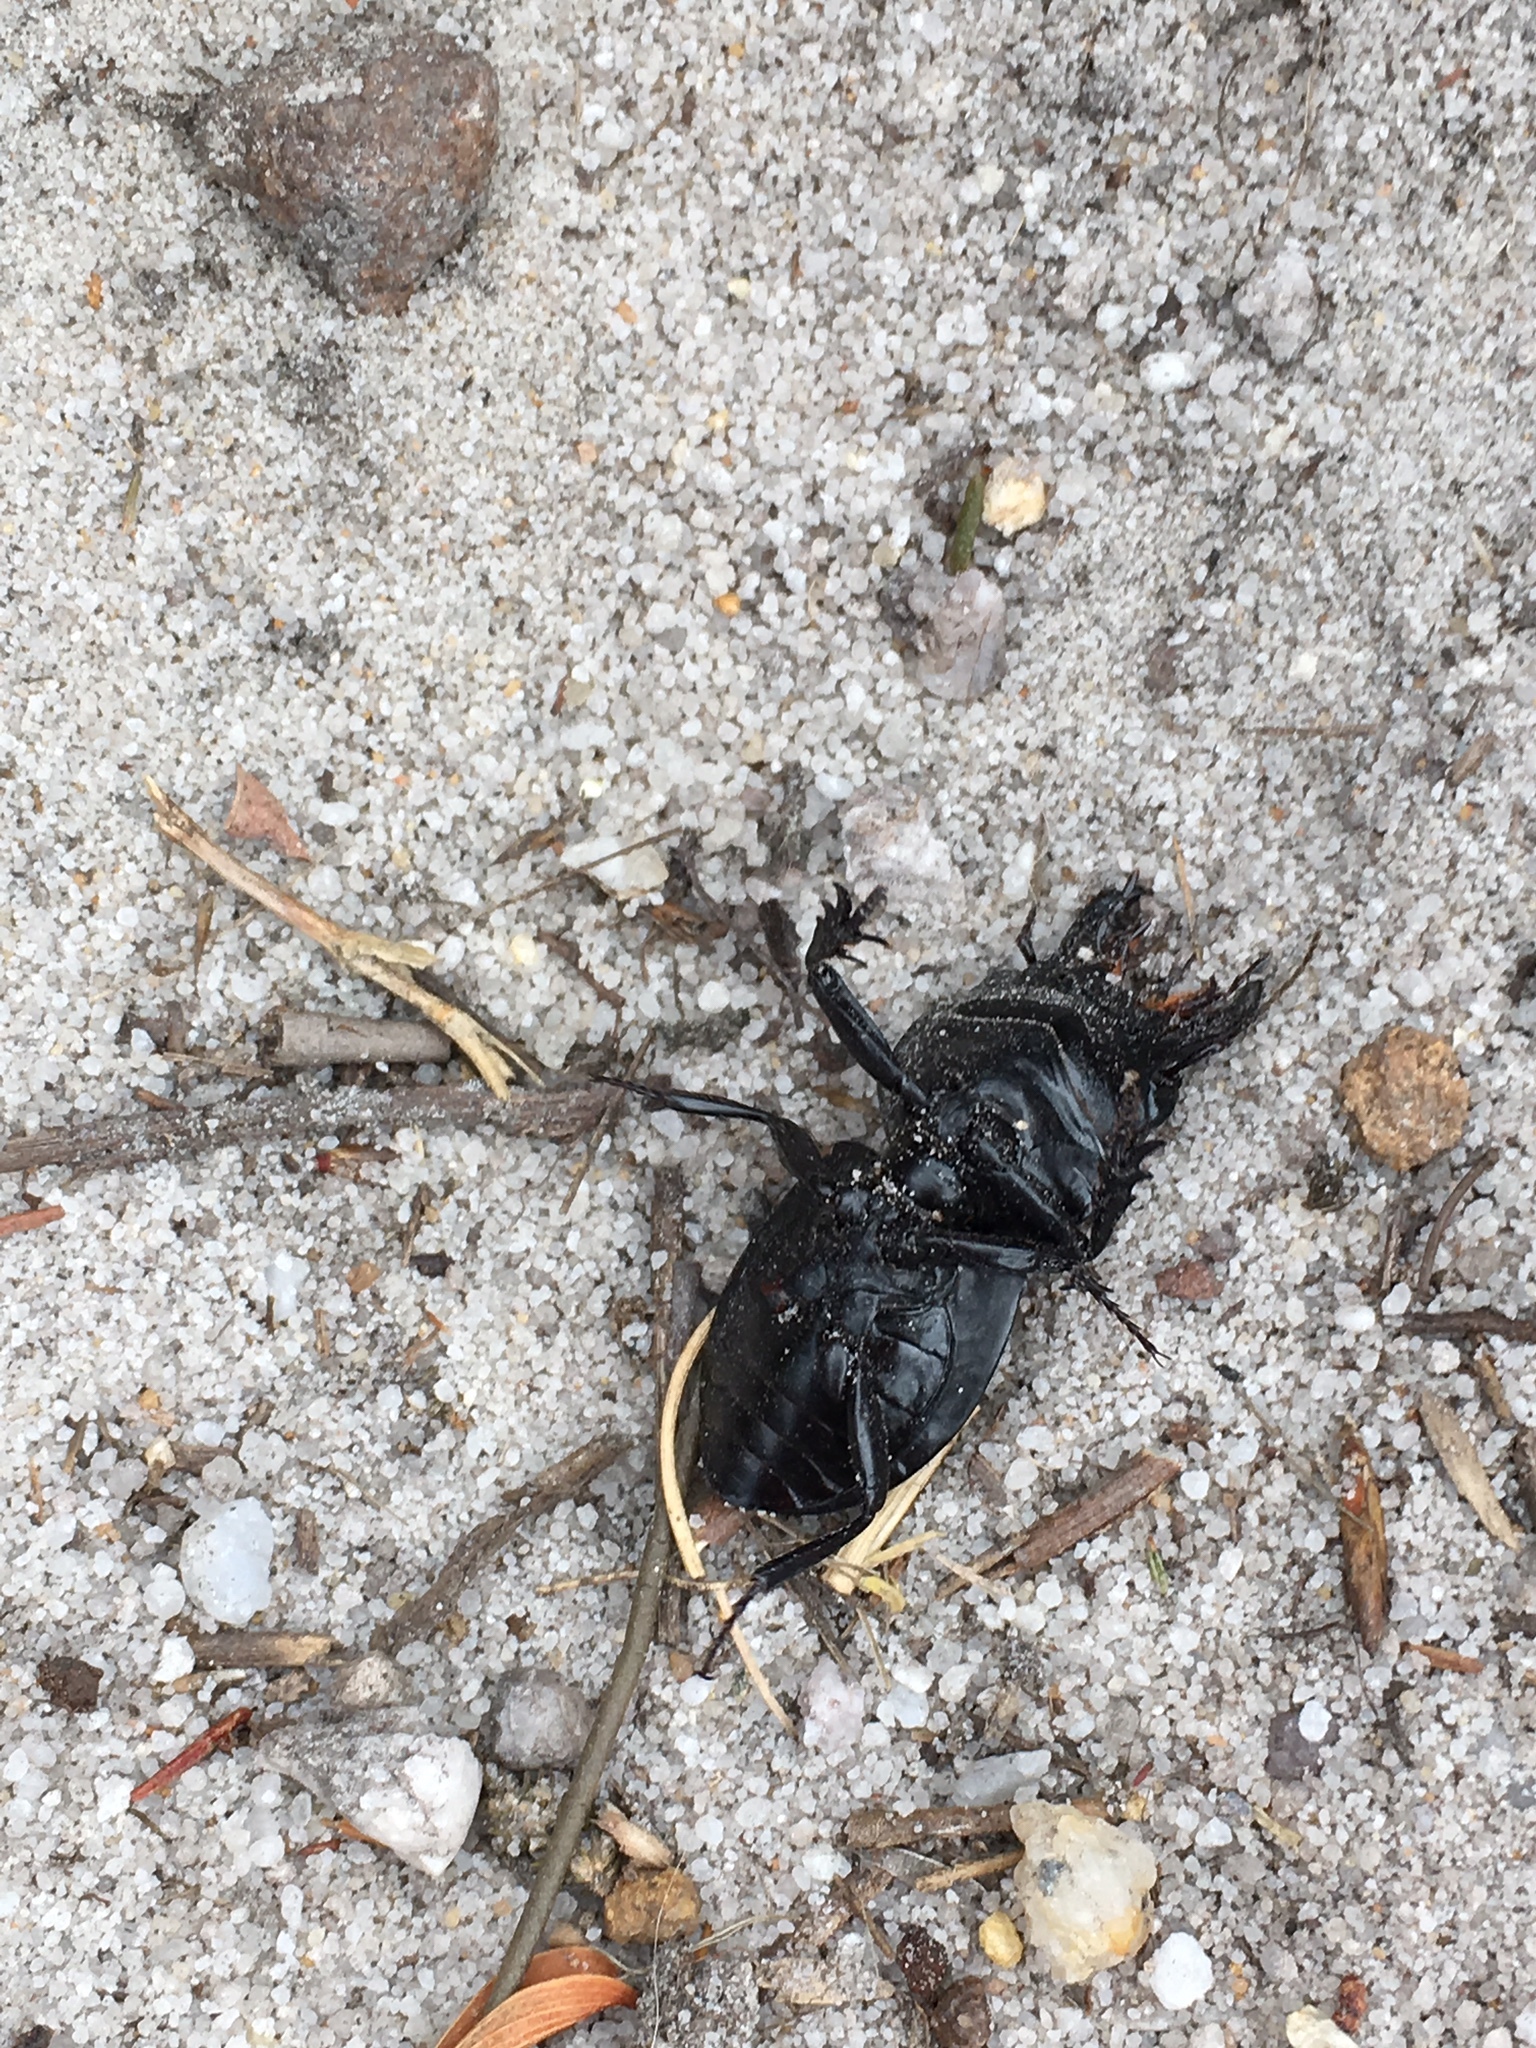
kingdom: Animalia
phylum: Arthropoda
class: Insecta
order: Coleoptera
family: Carabidae
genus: Pachyodontus
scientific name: Pachyodontus languidus
